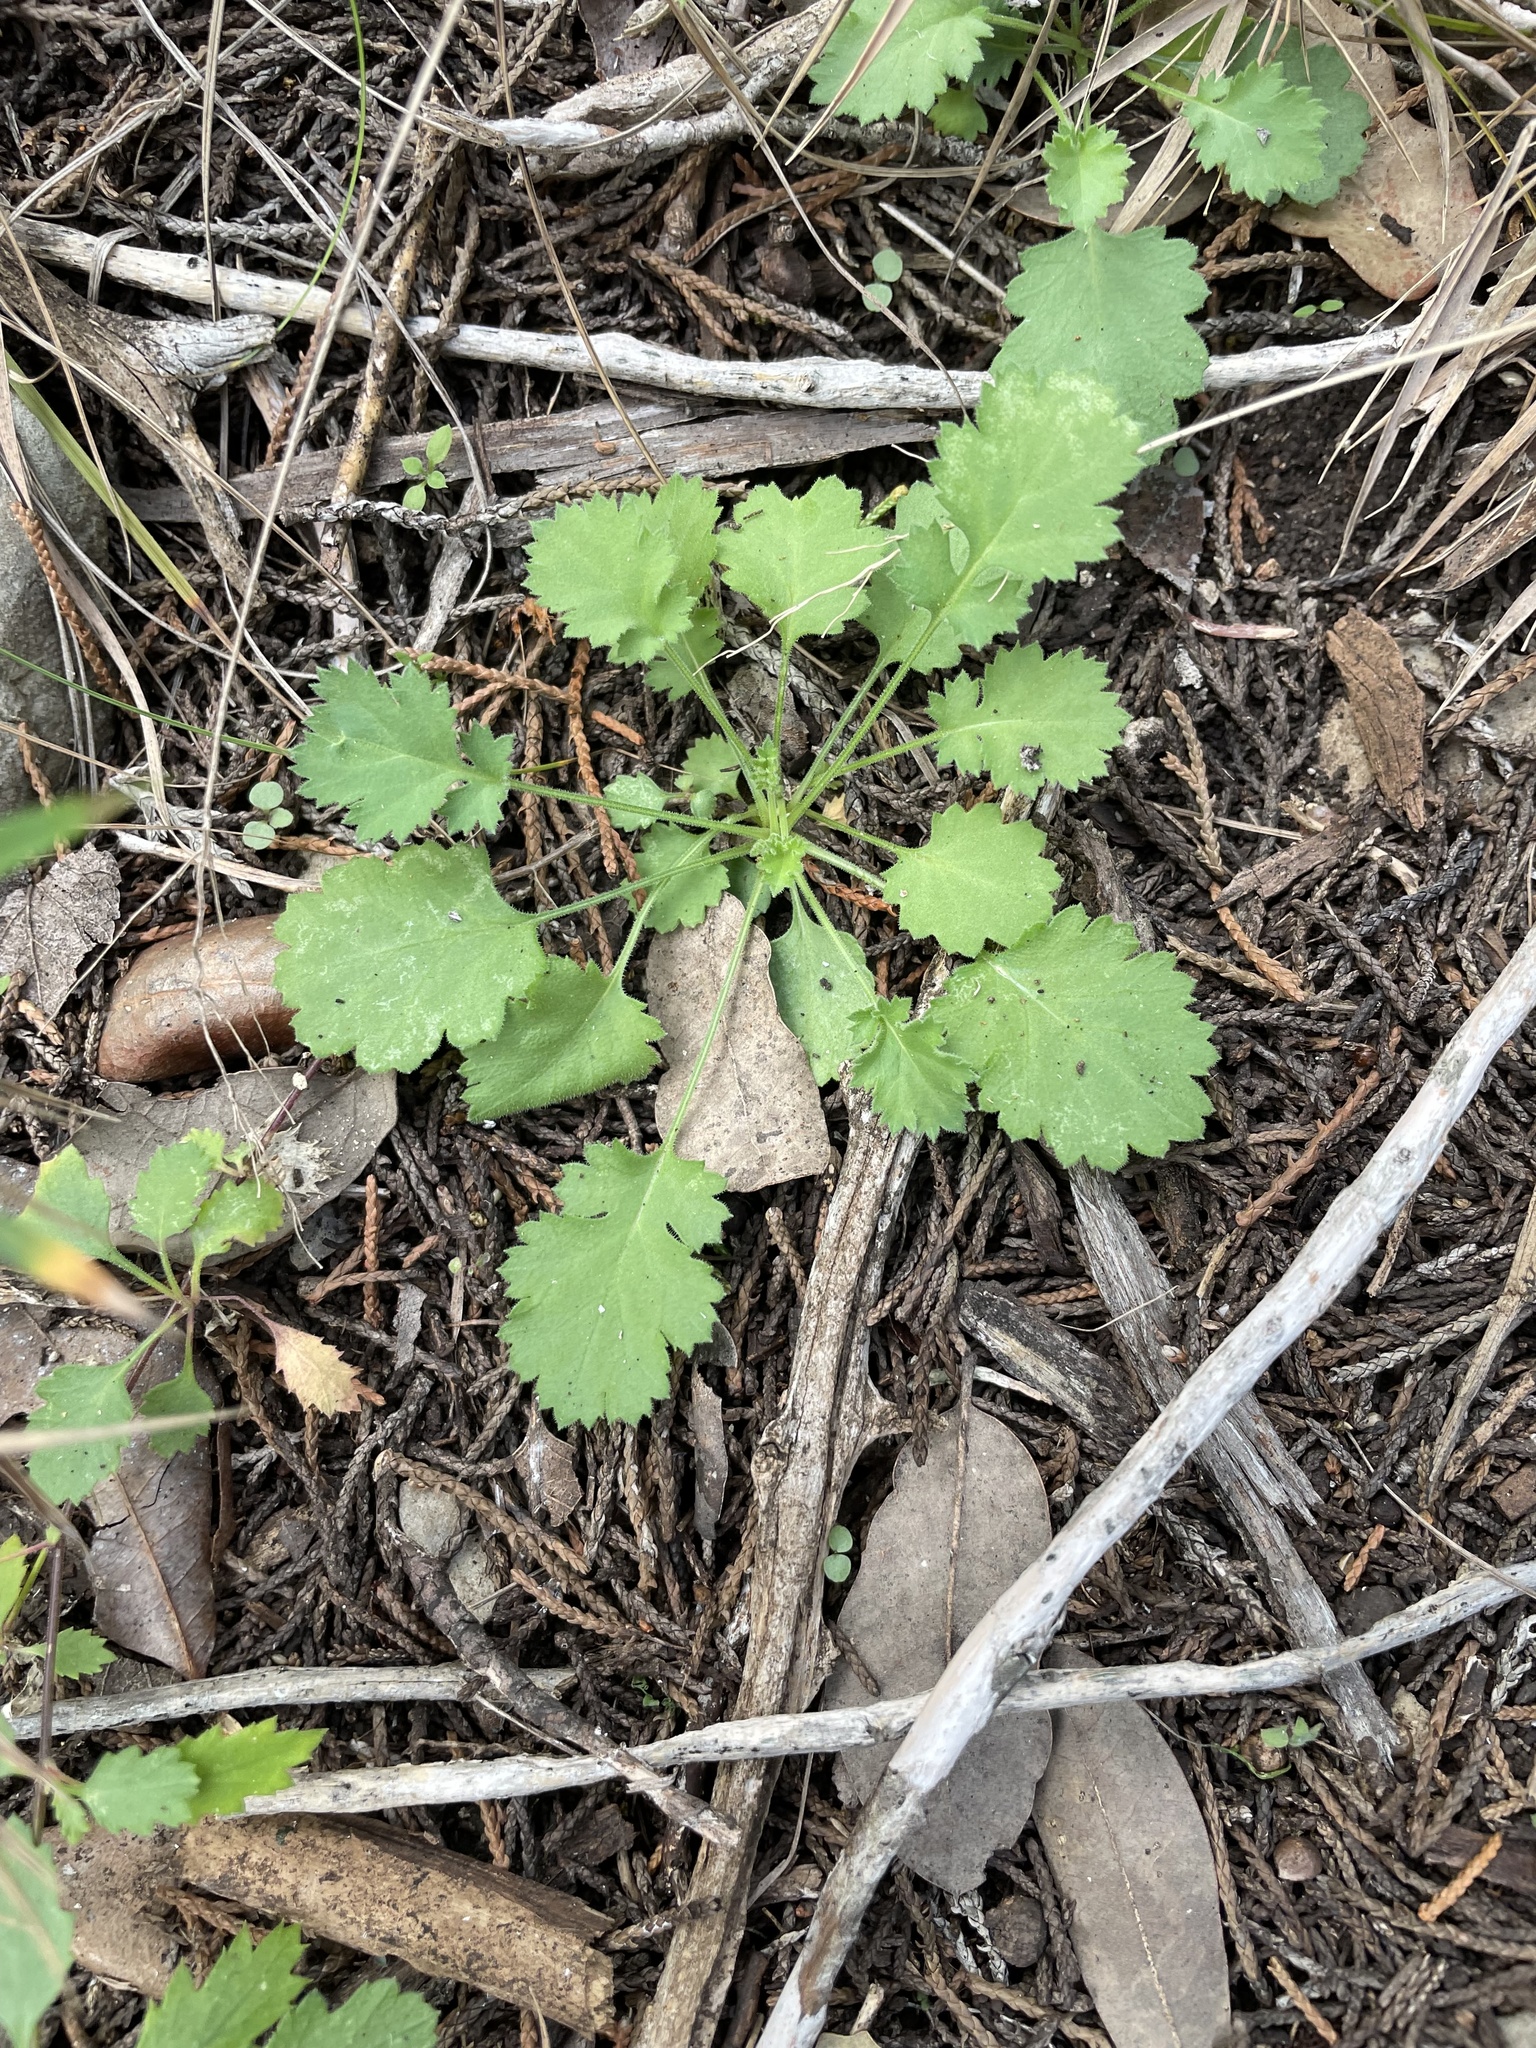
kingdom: Plantae
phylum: Tracheophyta
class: Magnoliopsida
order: Ericales
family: Polemoniaceae
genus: Giliastrum
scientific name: Giliastrum incisum
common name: Splitleaf gilia
